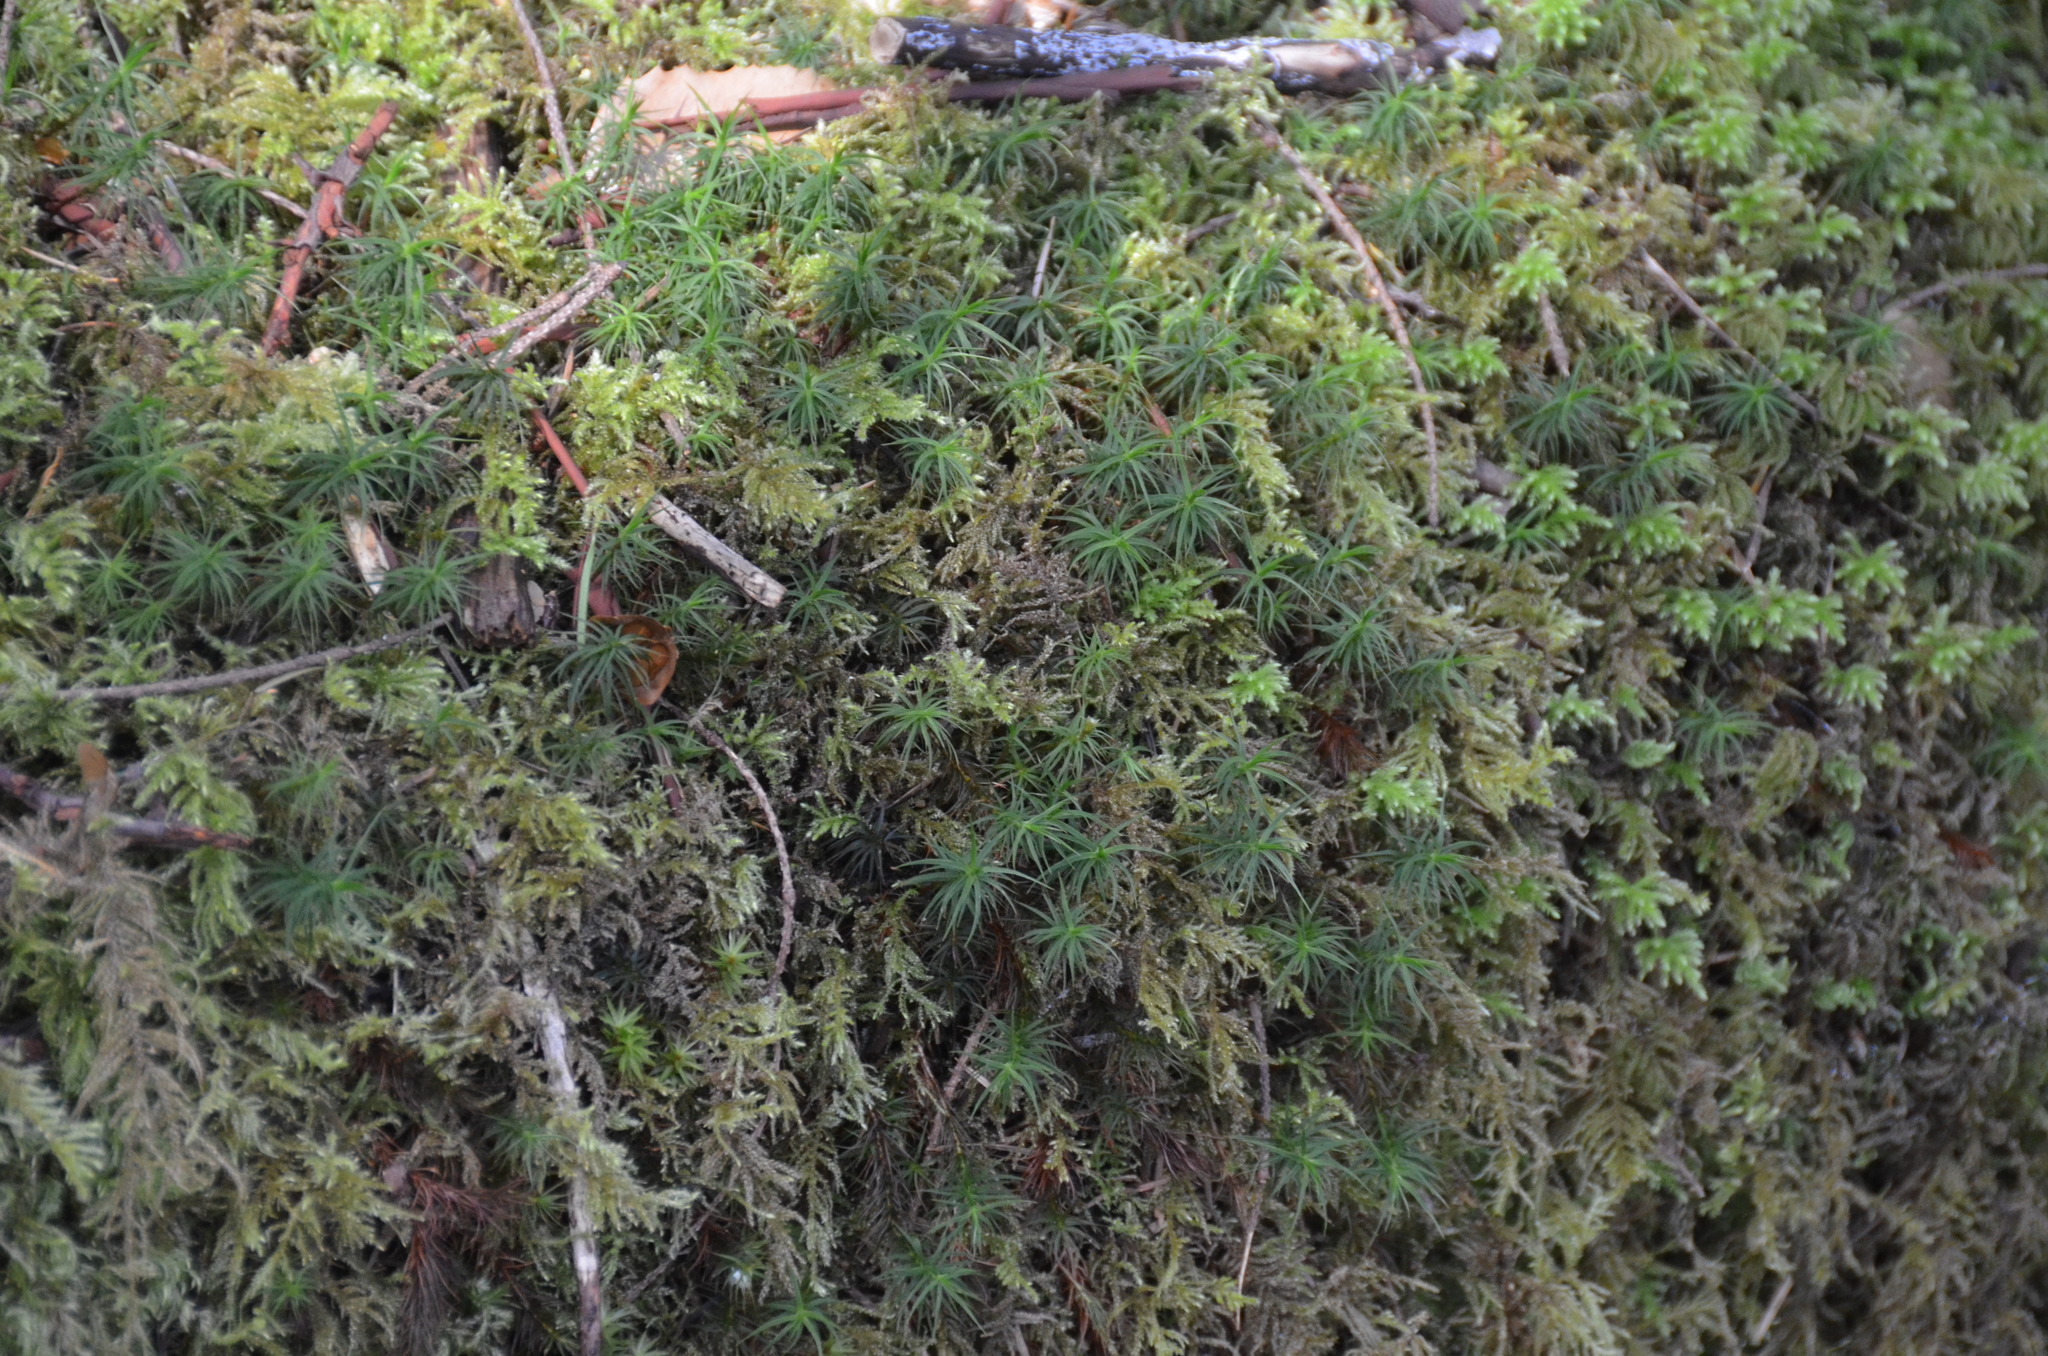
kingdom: Plantae
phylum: Bryophyta
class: Polytrichopsida
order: Polytrichales
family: Polytrichaceae
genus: Polytrichastrum
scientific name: Polytrichastrum alpinum
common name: Alpine haircap
